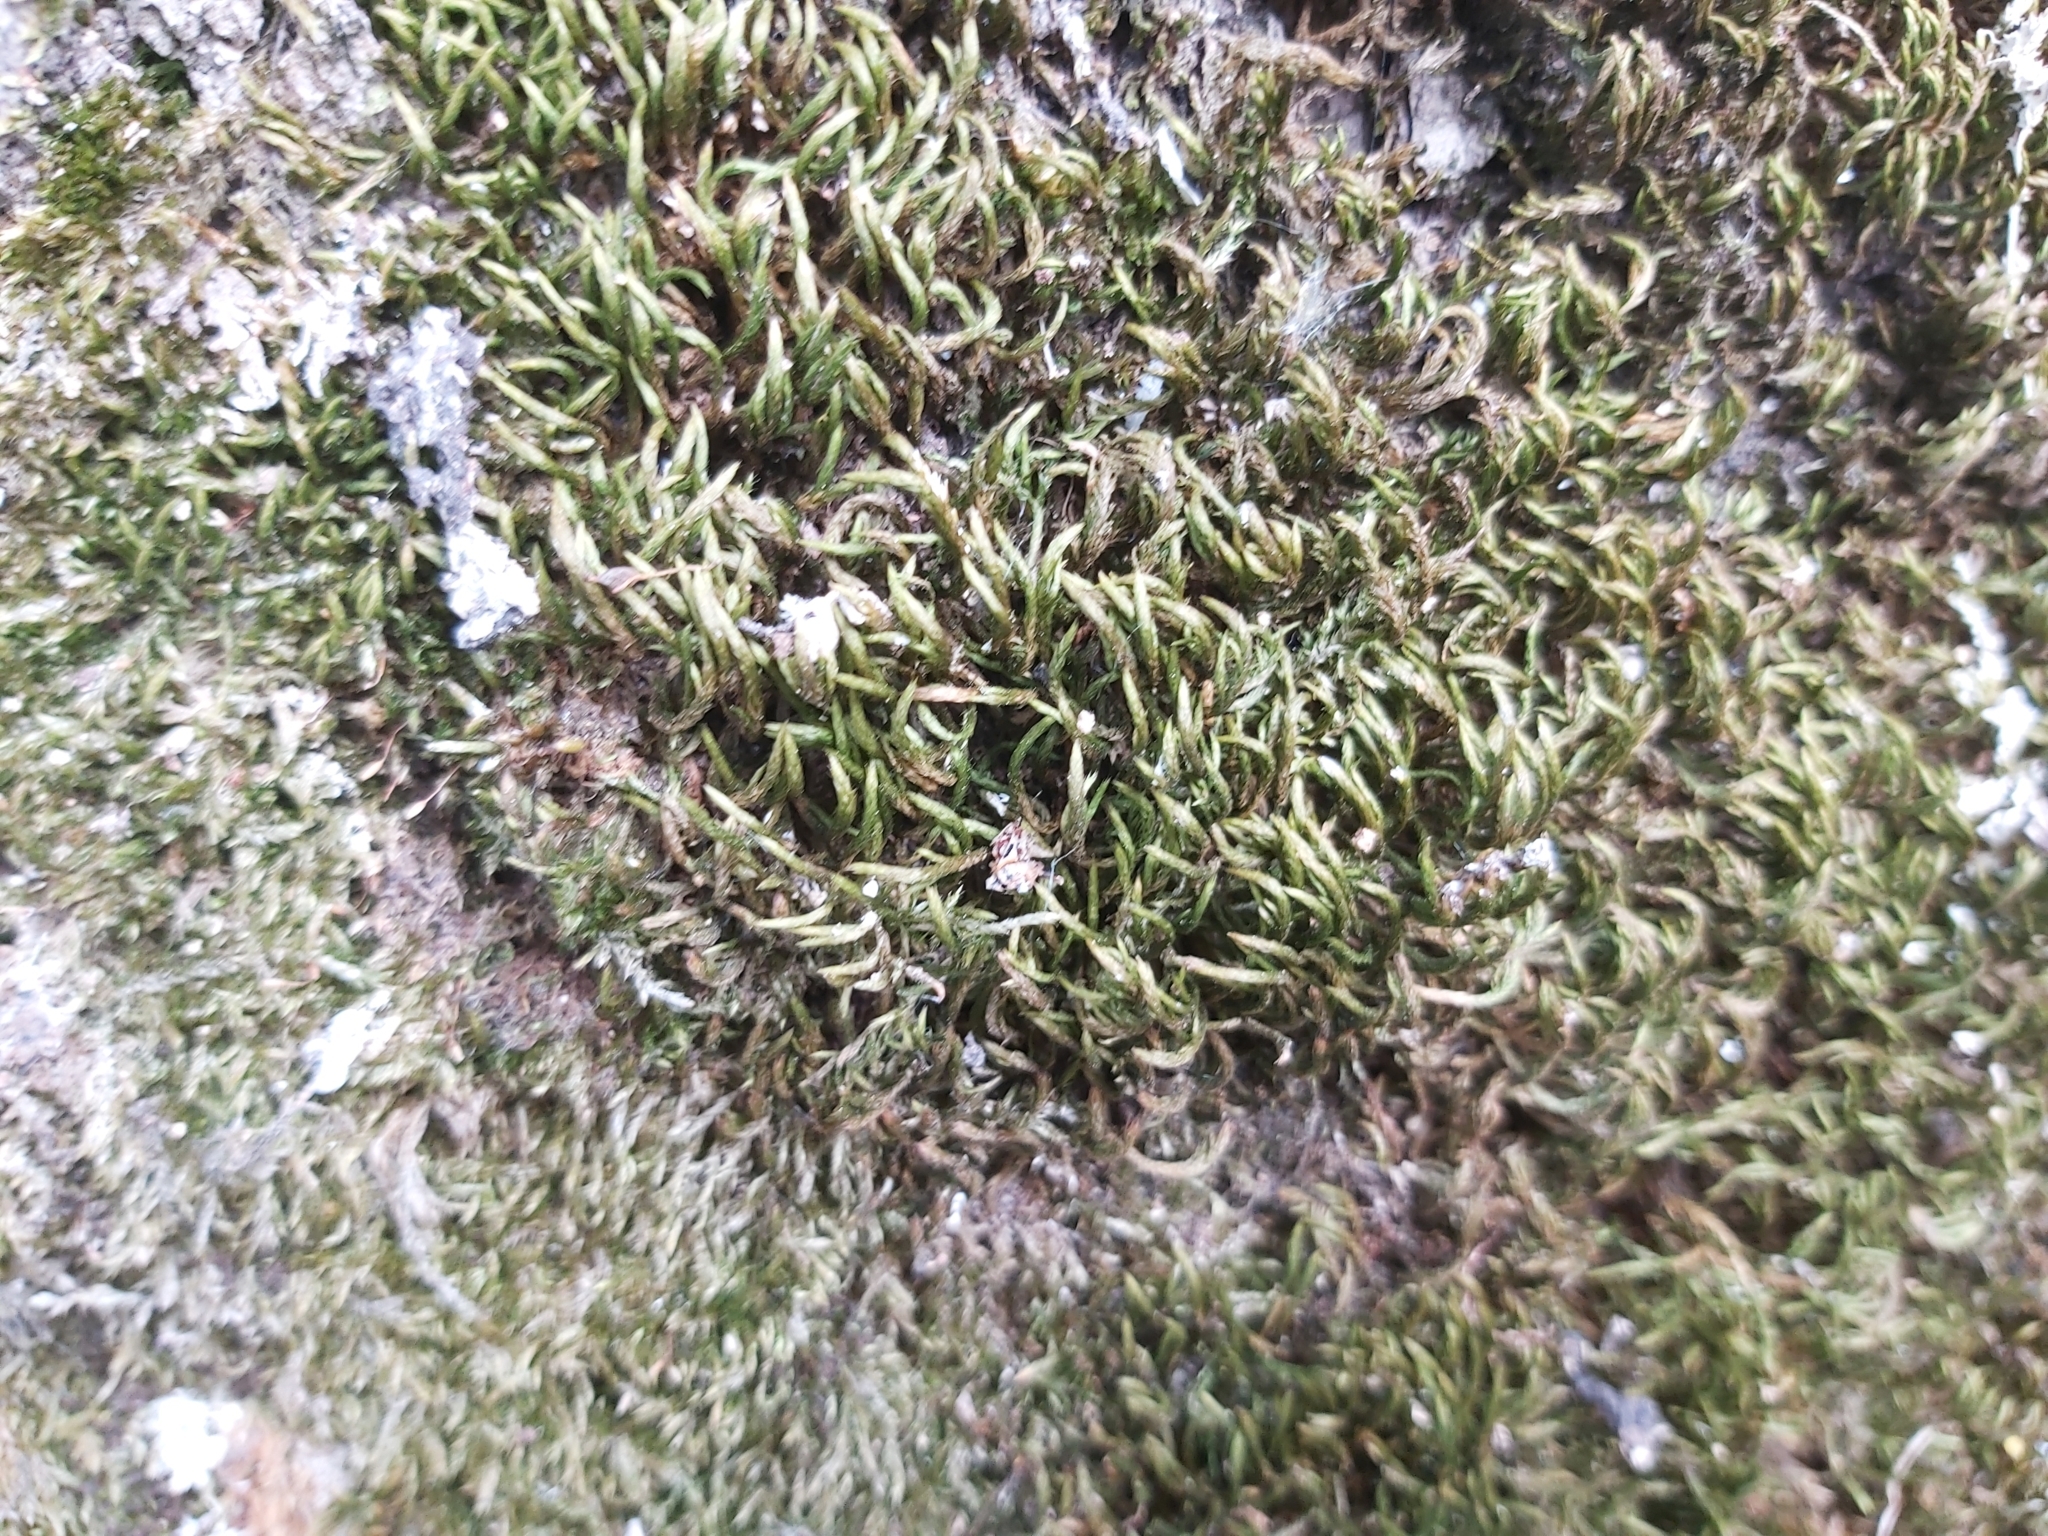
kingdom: Plantae
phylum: Bryophyta
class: Bryopsida
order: Hypnales
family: Leucodontaceae
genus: Leucodon
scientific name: Leucodon sciuroides
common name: Squirrel-tail moss
